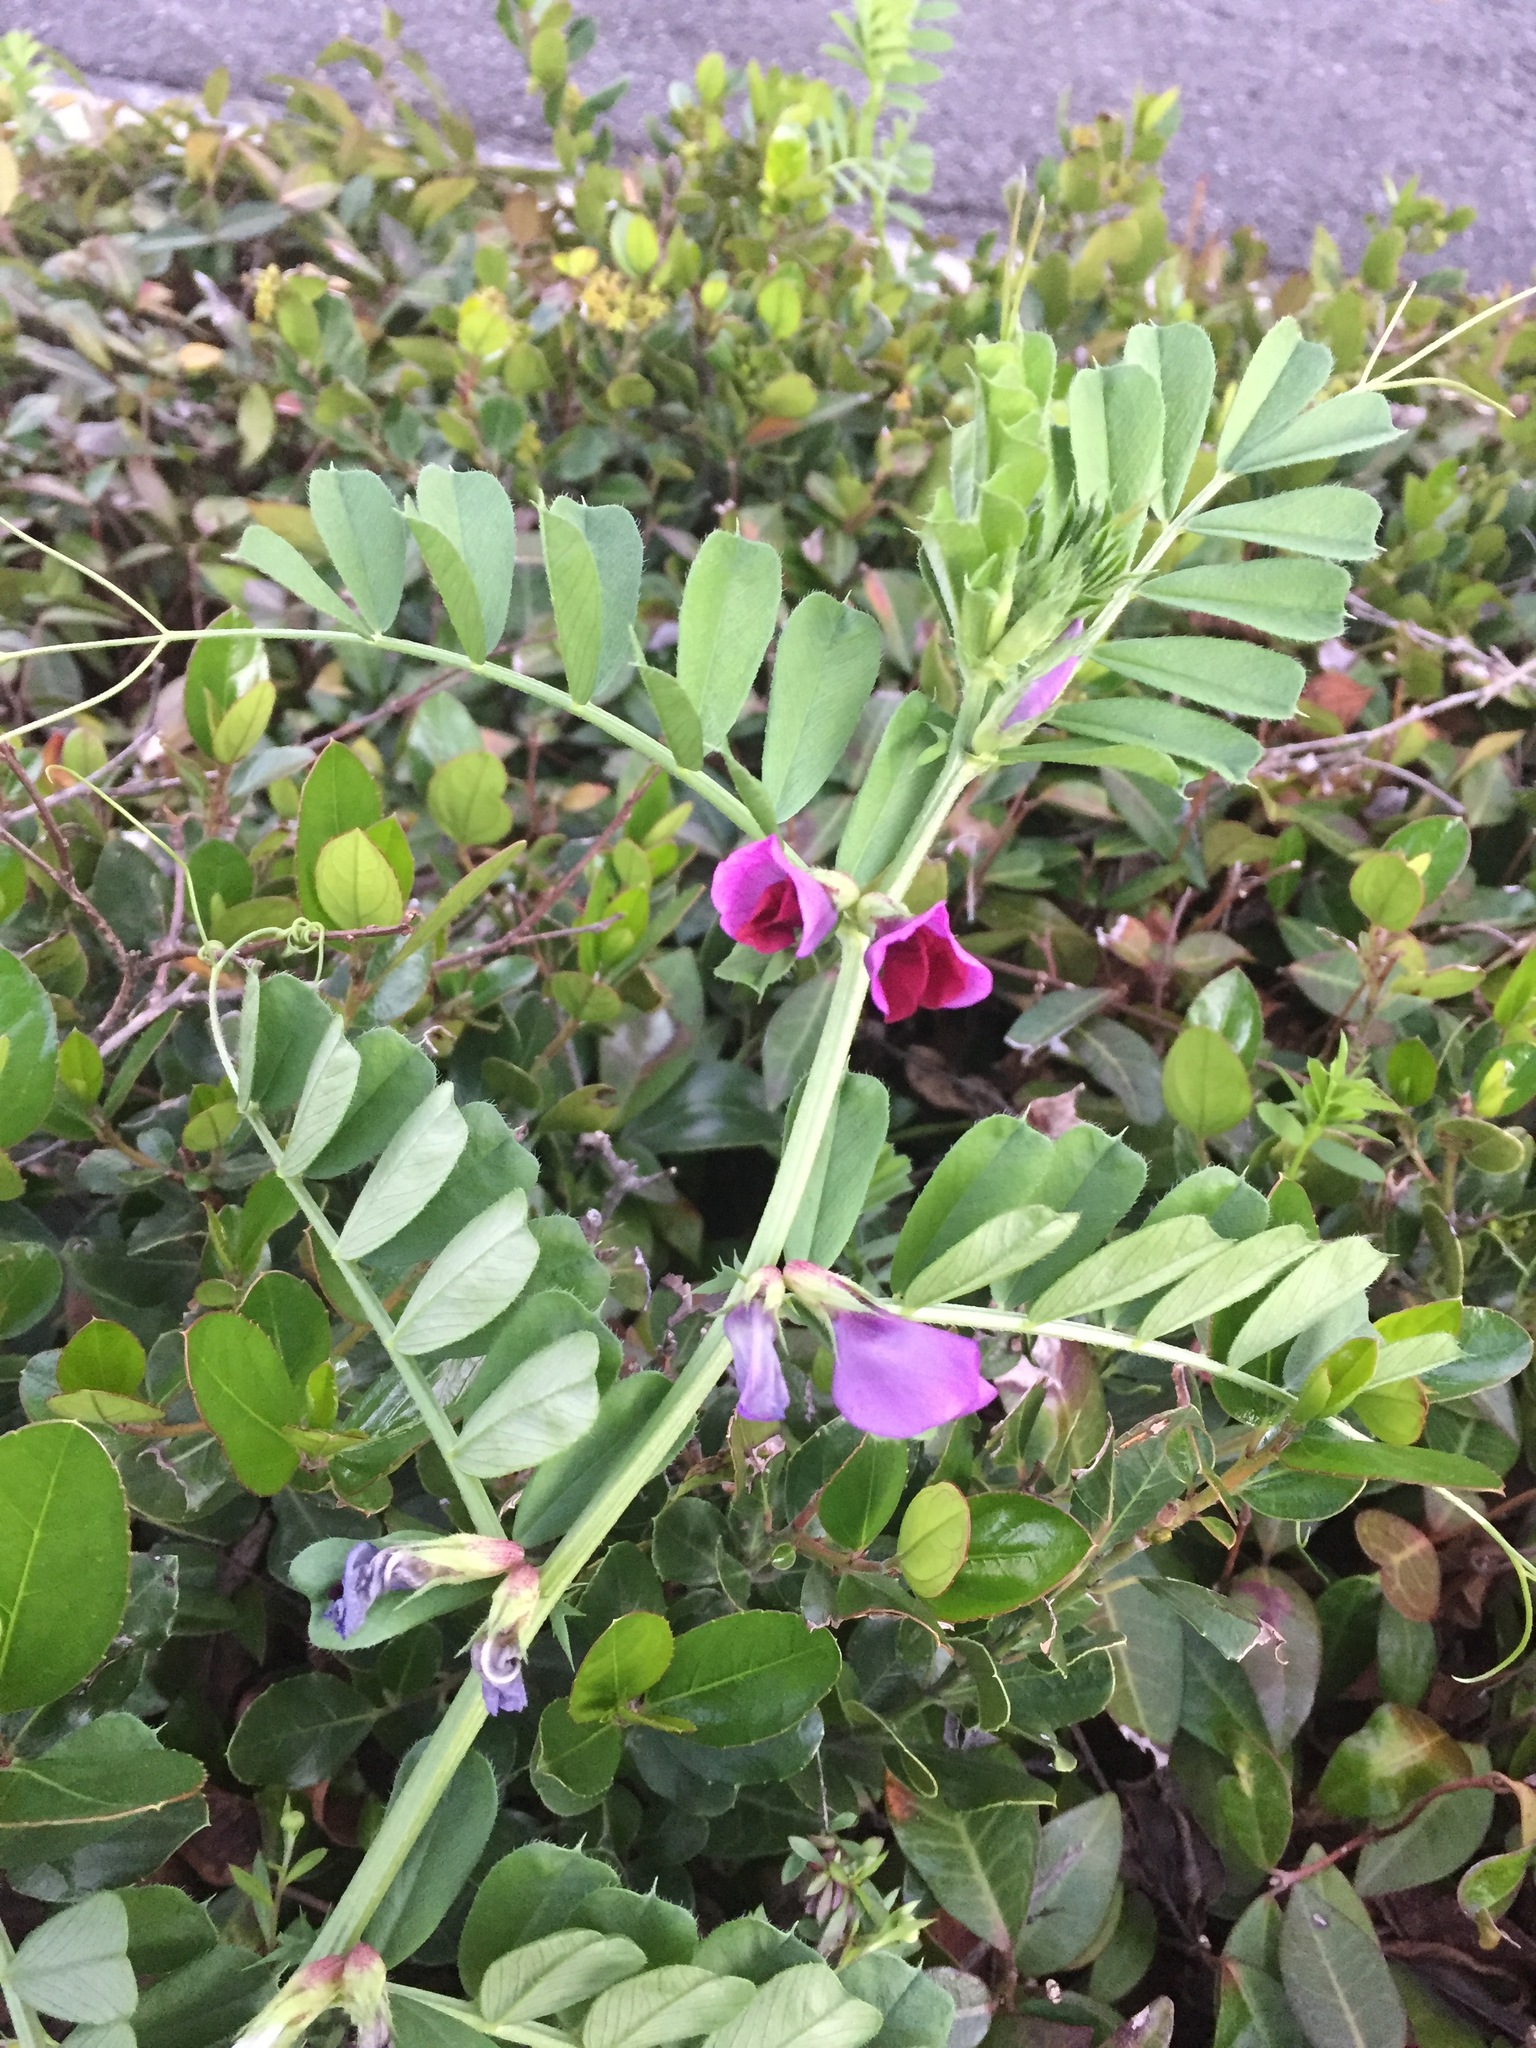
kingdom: Plantae
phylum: Tracheophyta
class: Magnoliopsida
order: Fabales
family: Fabaceae
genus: Vicia
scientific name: Vicia sativa
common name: Garden vetch
